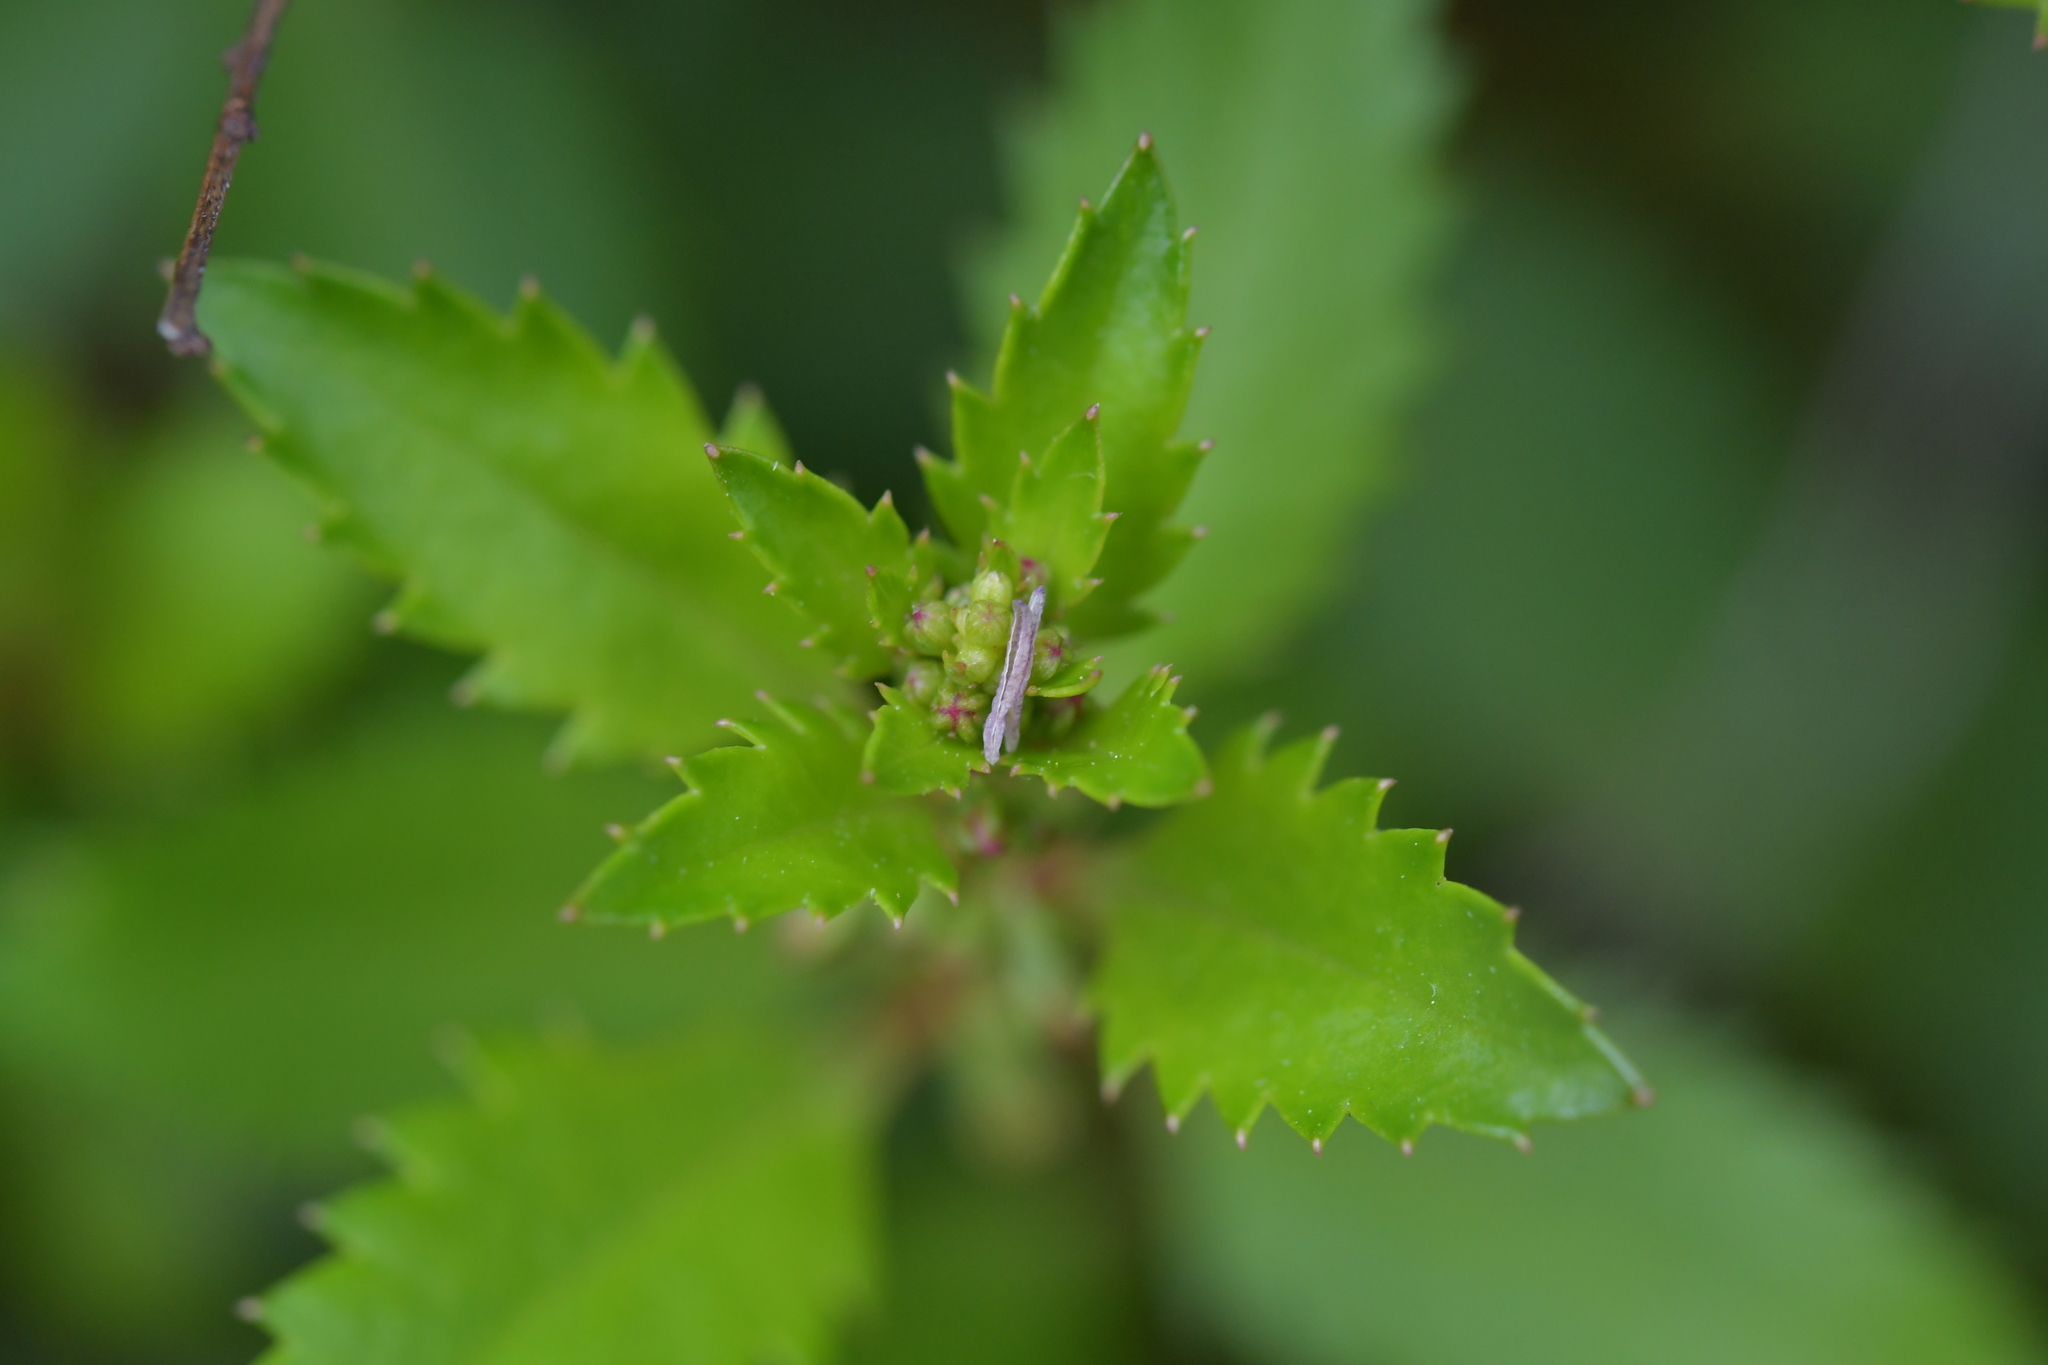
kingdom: Plantae
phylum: Tracheophyta
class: Magnoliopsida
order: Saxifragales
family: Haloragaceae
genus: Haloragis
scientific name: Haloragis erecta
